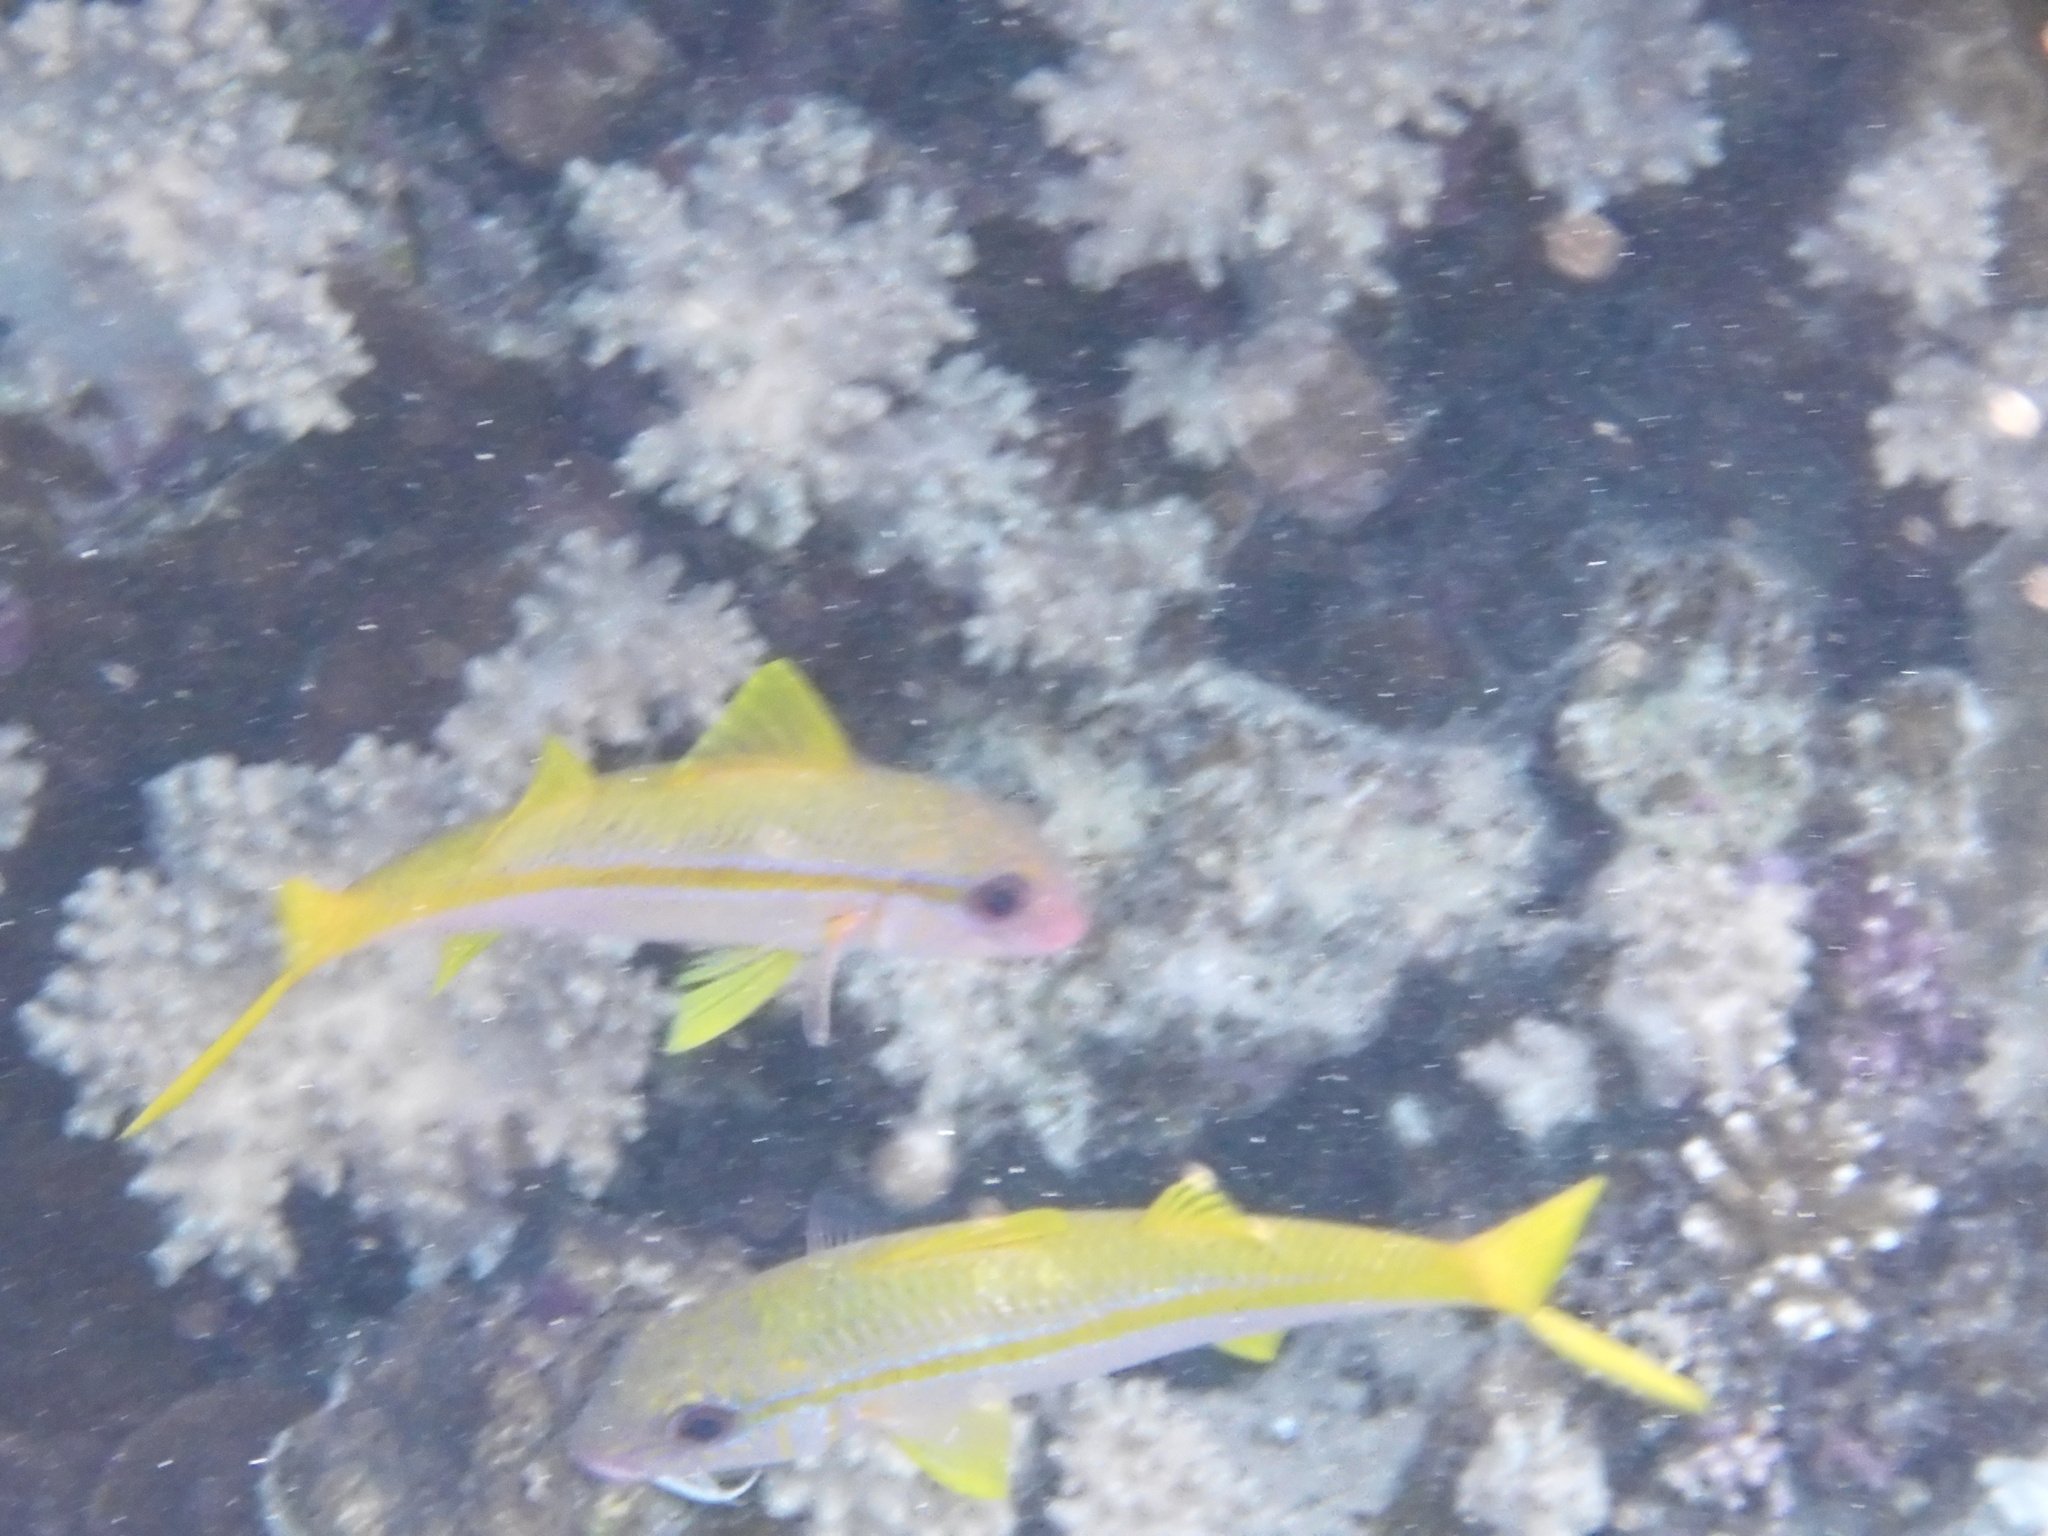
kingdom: Animalia
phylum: Chordata
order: Perciformes
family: Mullidae
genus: Mulloidichthys
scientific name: Mulloidichthys vanicolensis
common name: Yellowfin goatfish
